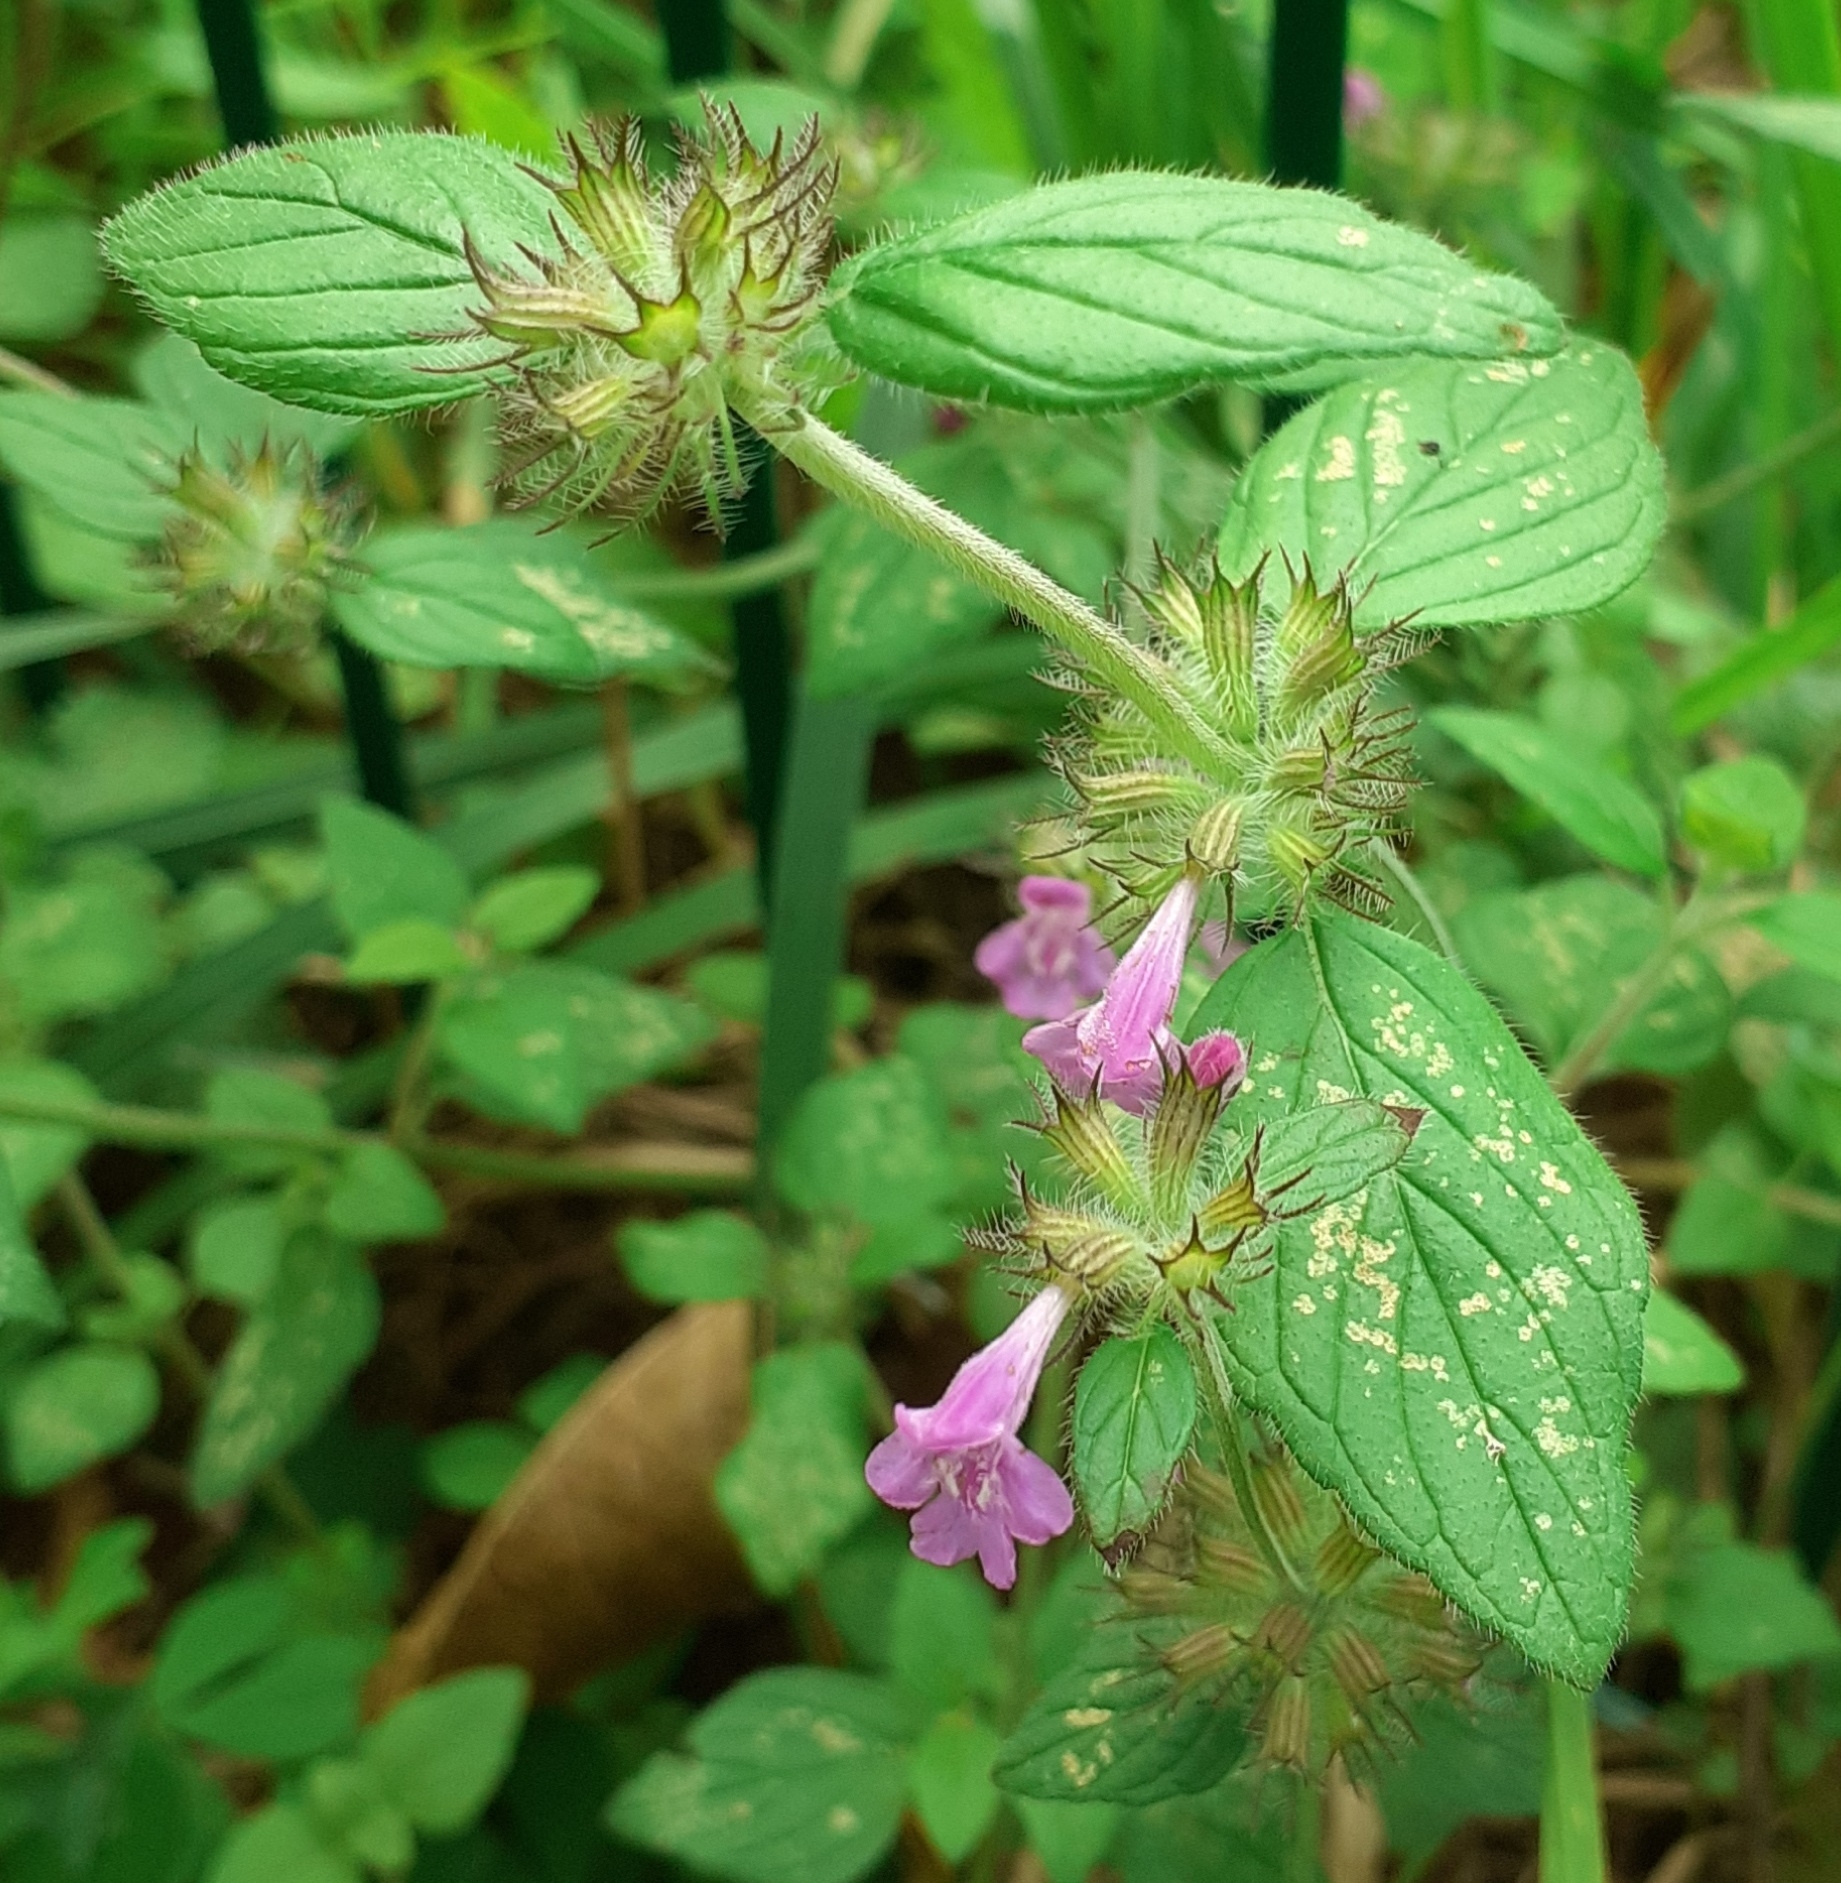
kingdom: Plantae
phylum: Tracheophyta
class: Magnoliopsida
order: Lamiales
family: Lamiaceae
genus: Clinopodium
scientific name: Clinopodium vulgare
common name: Wild basil
